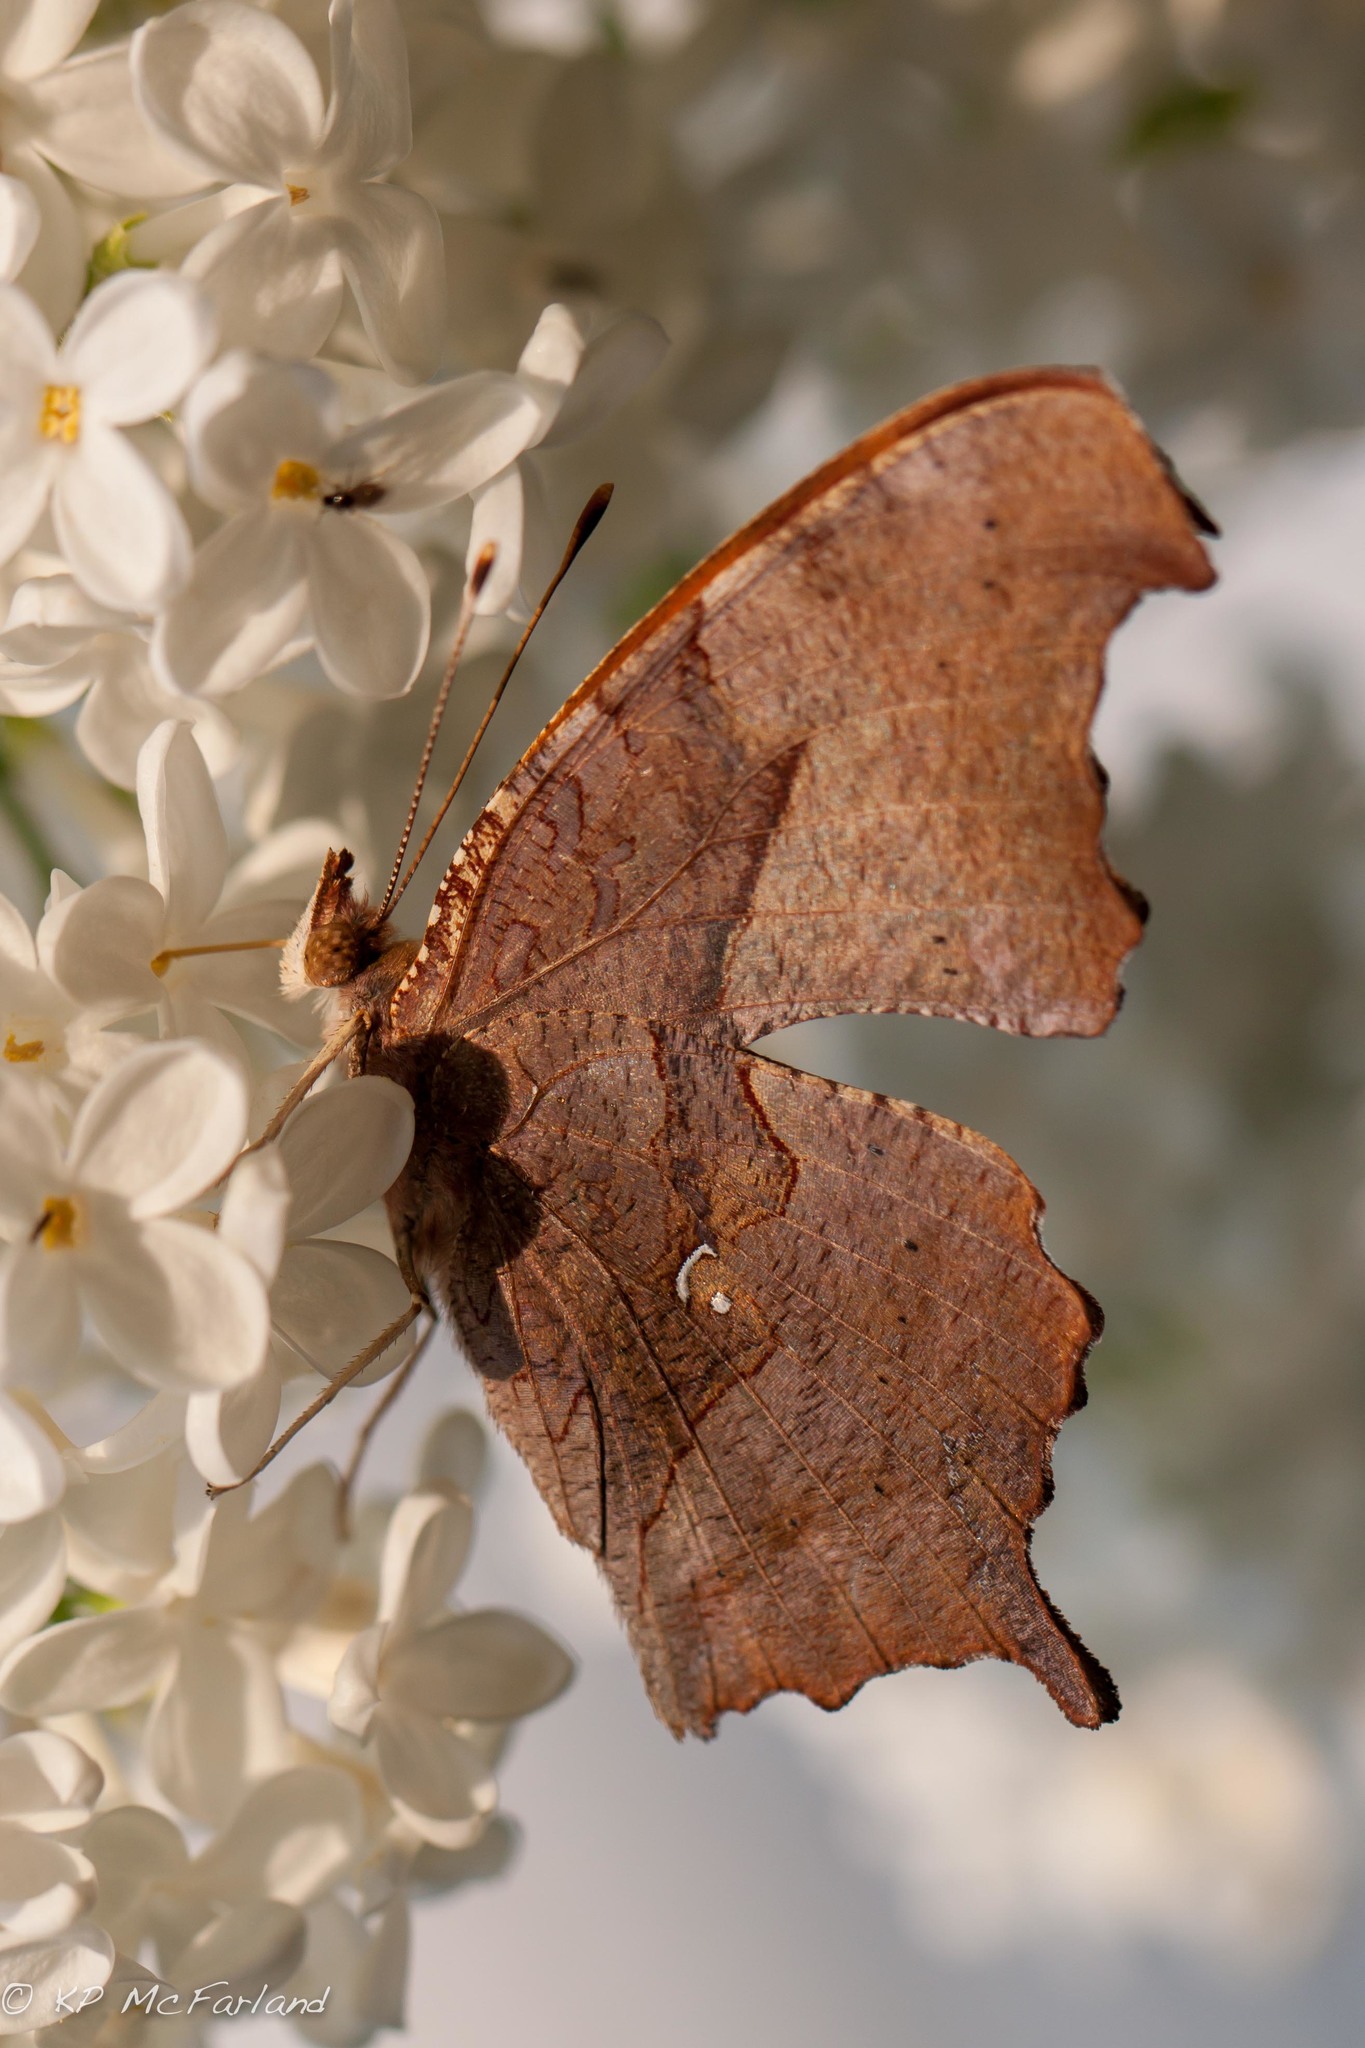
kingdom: Animalia
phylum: Arthropoda
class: Insecta
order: Lepidoptera
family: Nymphalidae
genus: Polygonia
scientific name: Polygonia interrogationis
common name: Question mark
